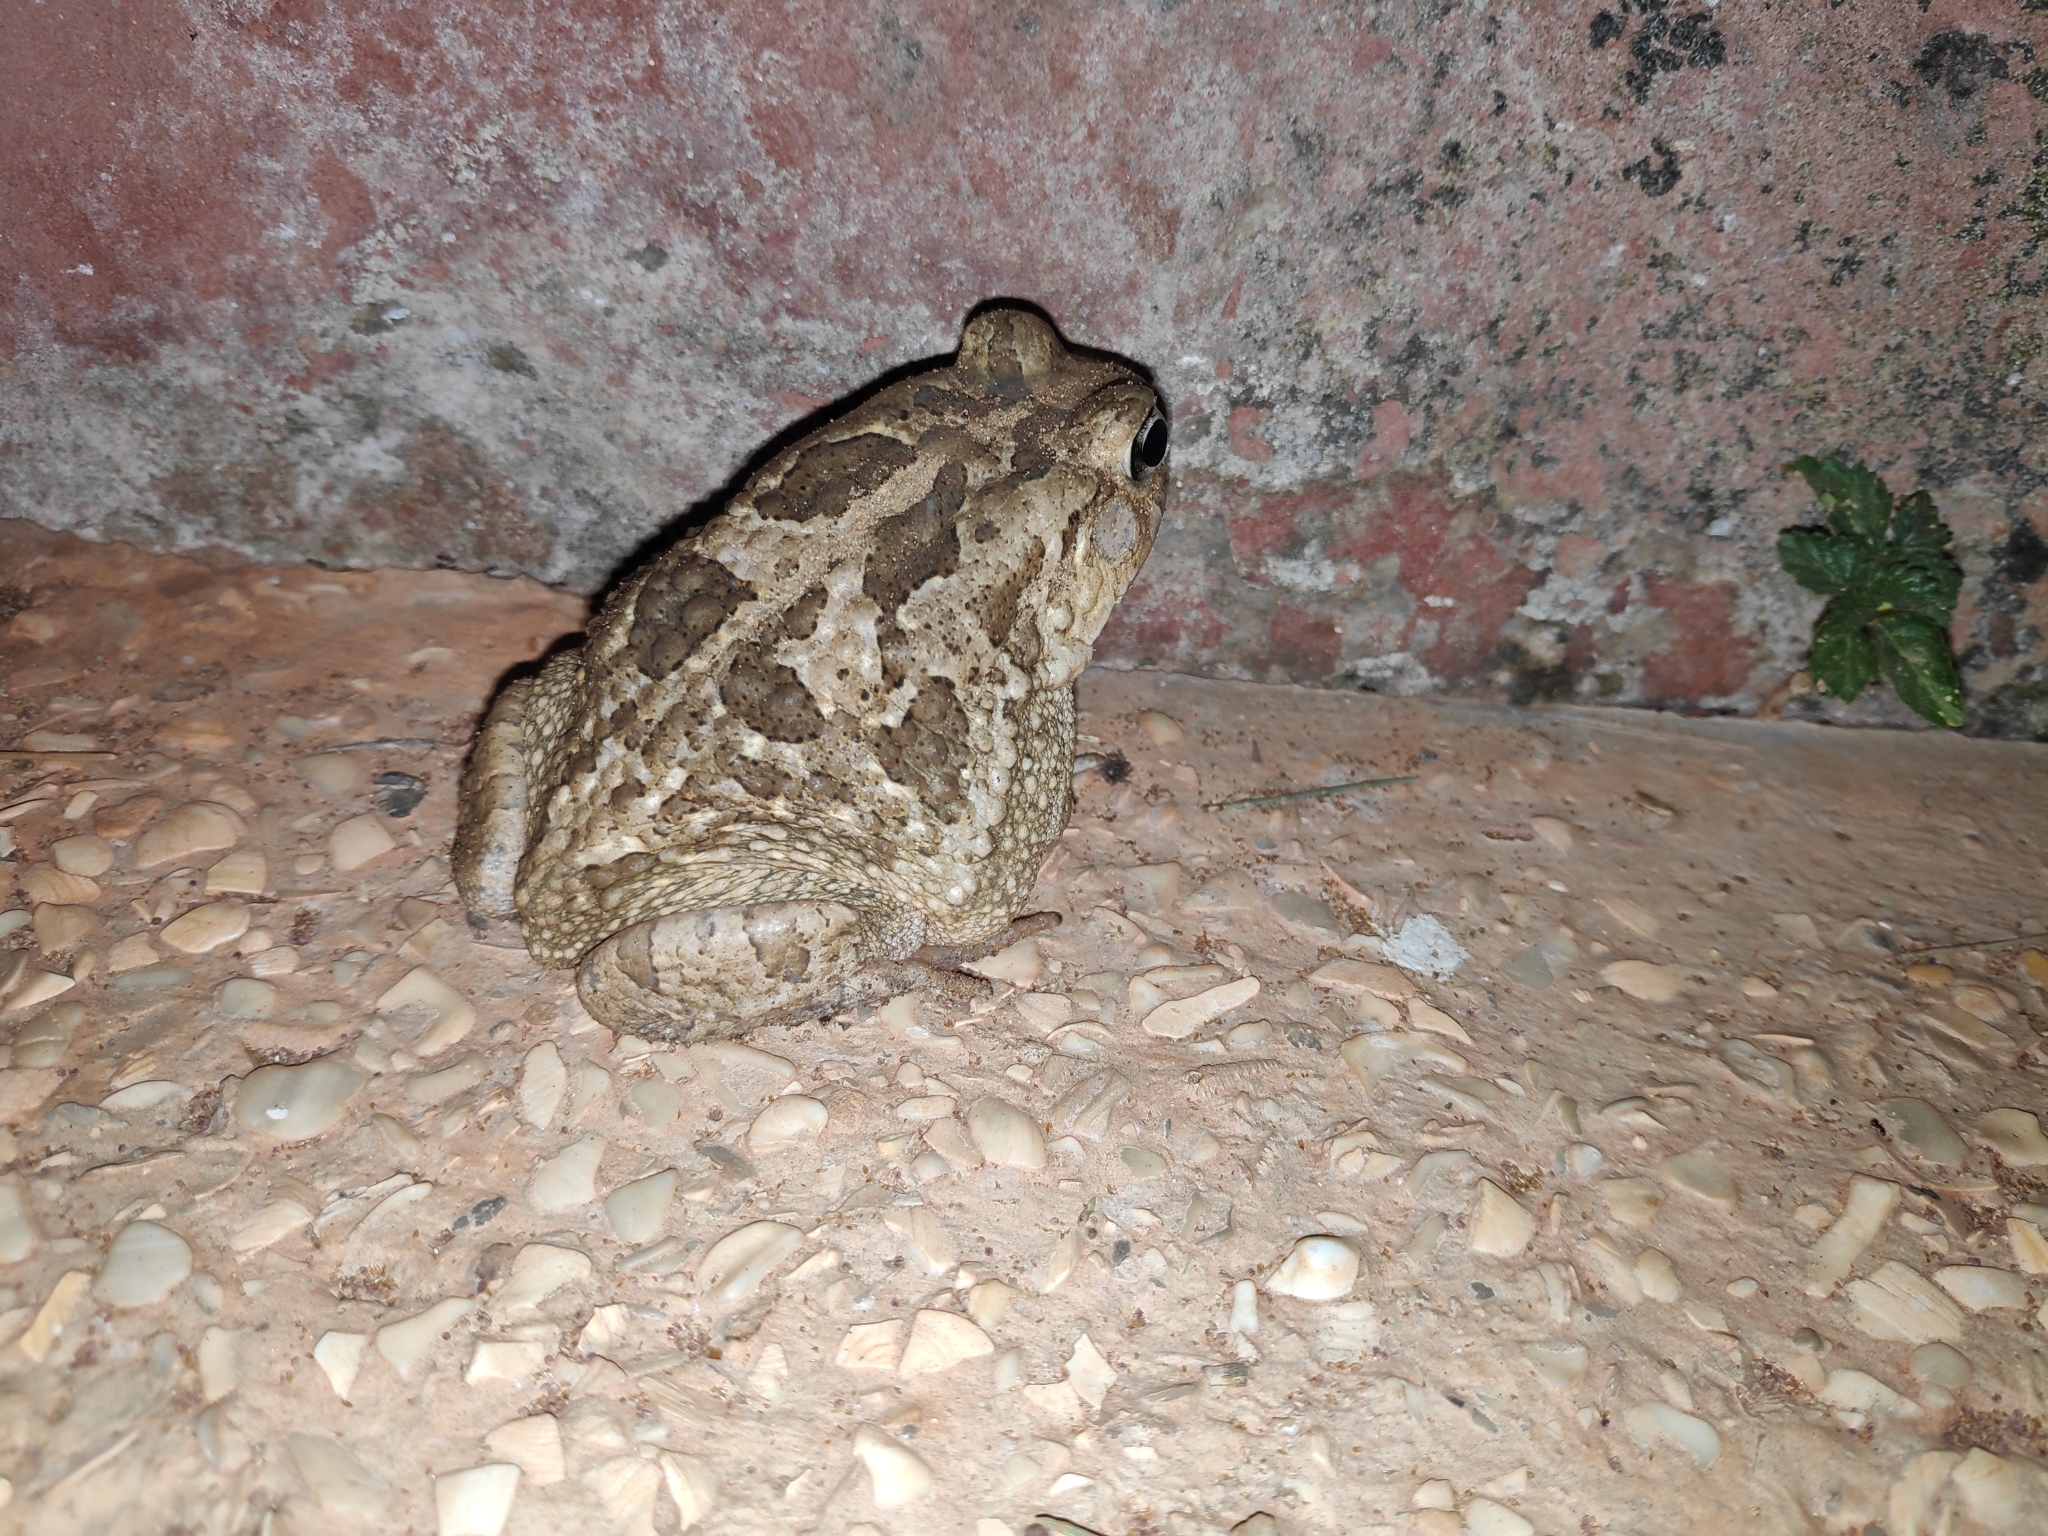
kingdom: Animalia
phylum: Chordata
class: Amphibia
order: Anura
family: Bufonidae
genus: Sclerophrys
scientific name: Sclerophrys regularis
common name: African common toad
